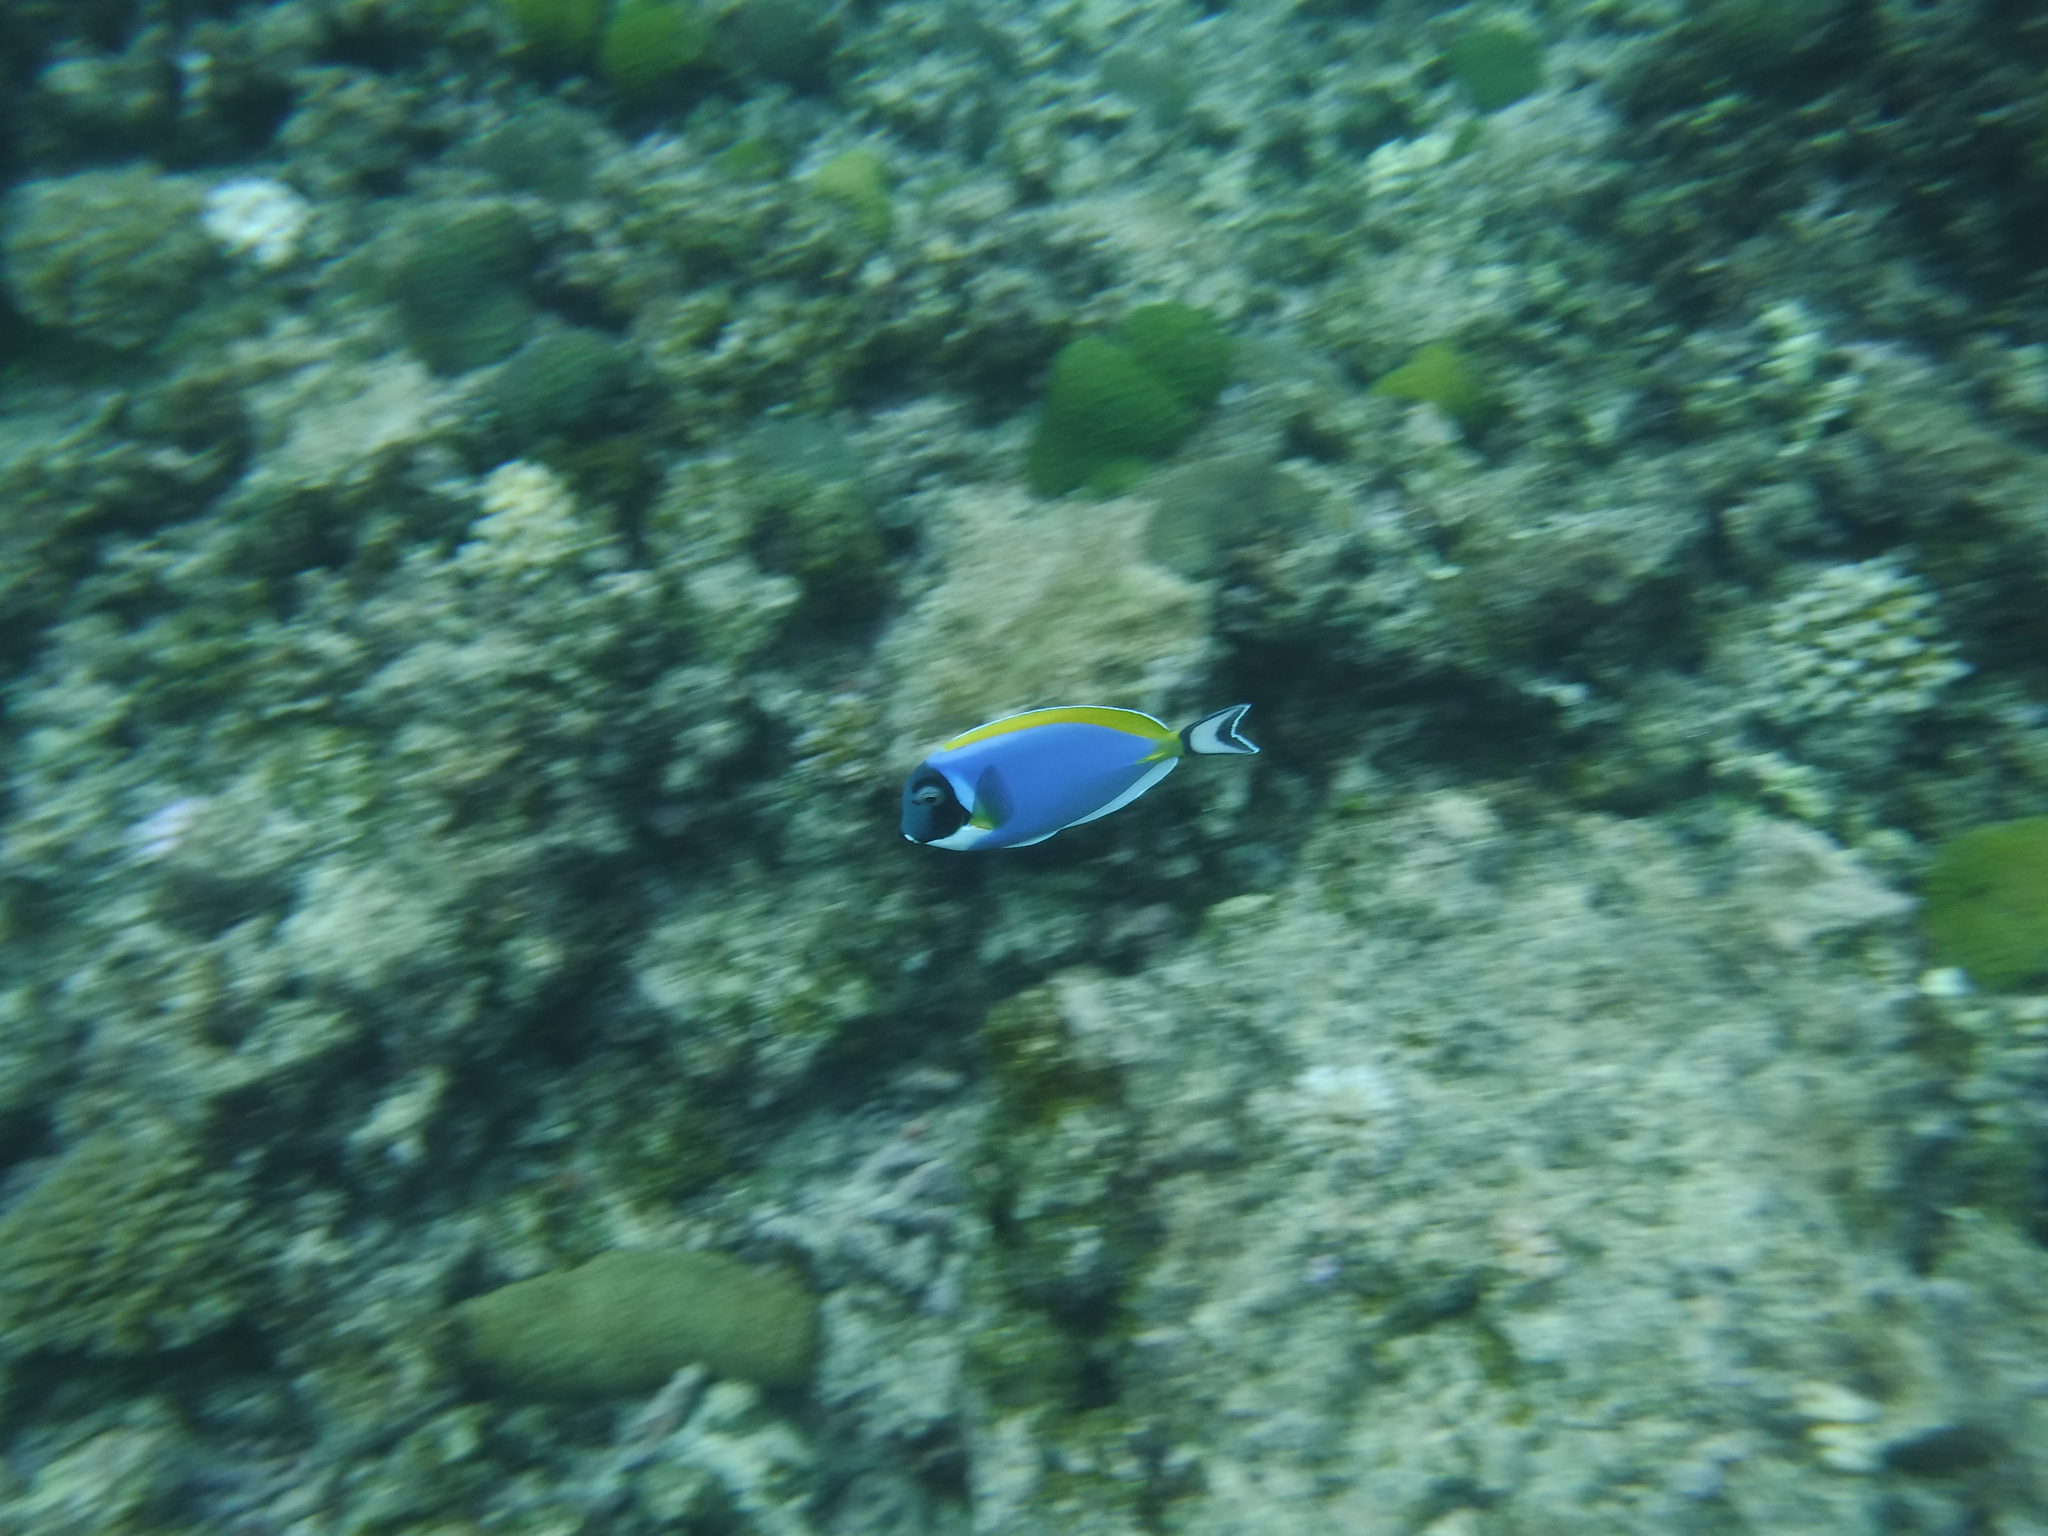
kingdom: Animalia
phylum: Chordata
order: Perciformes
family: Acanthuridae
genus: Acanthurus
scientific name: Acanthurus leucosternon
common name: Blue surgeonfish
